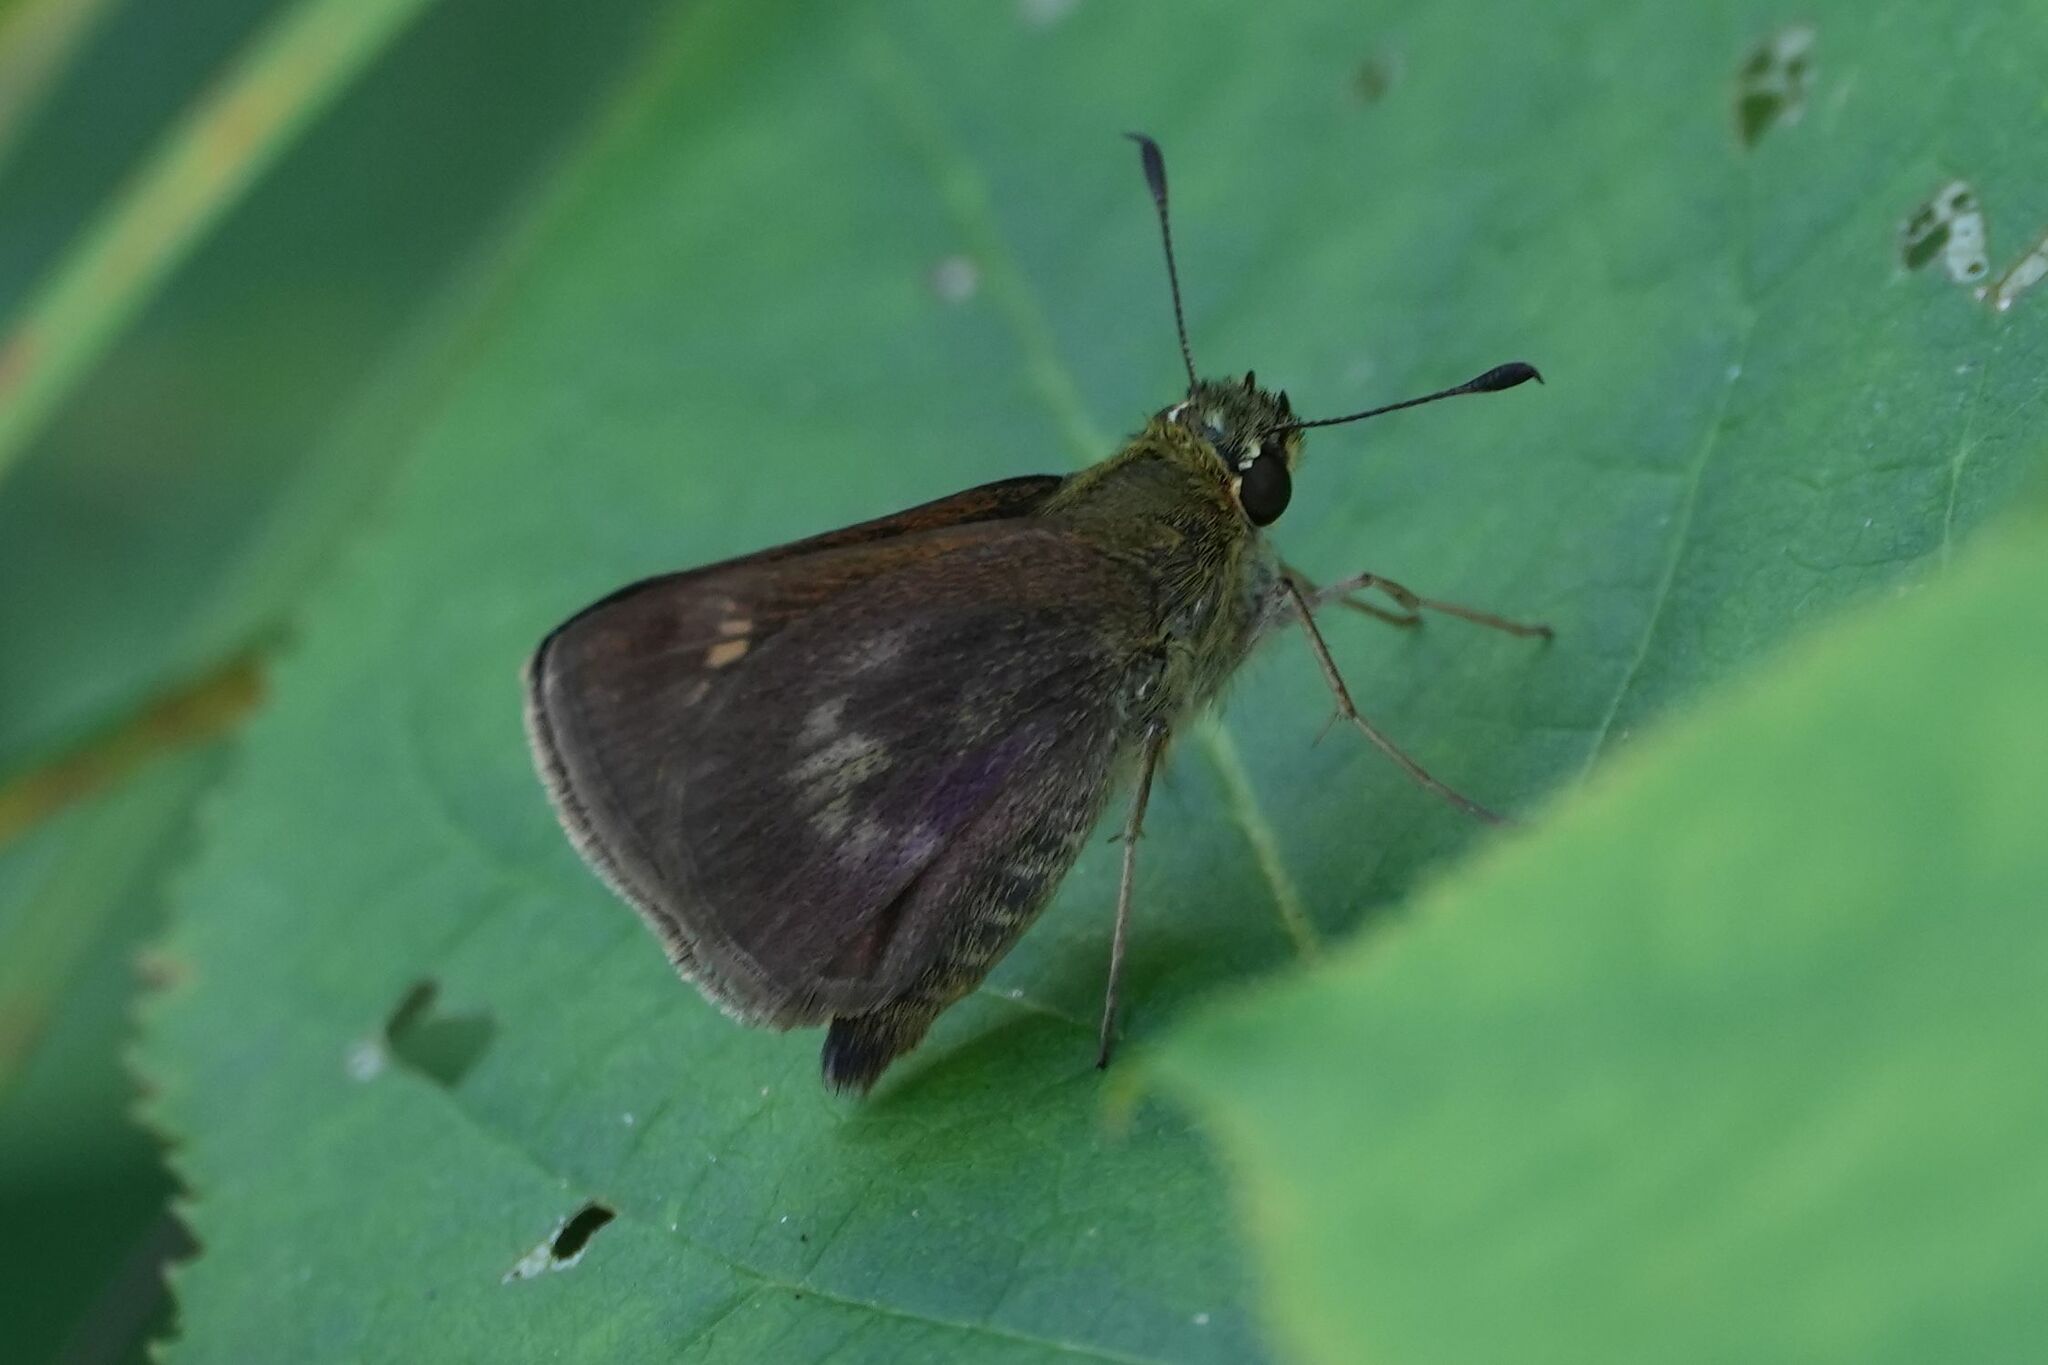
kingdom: Animalia
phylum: Arthropoda
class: Insecta
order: Lepidoptera
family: Hesperiidae
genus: Polites
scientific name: Polites egeremet
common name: Northern broken-dash
